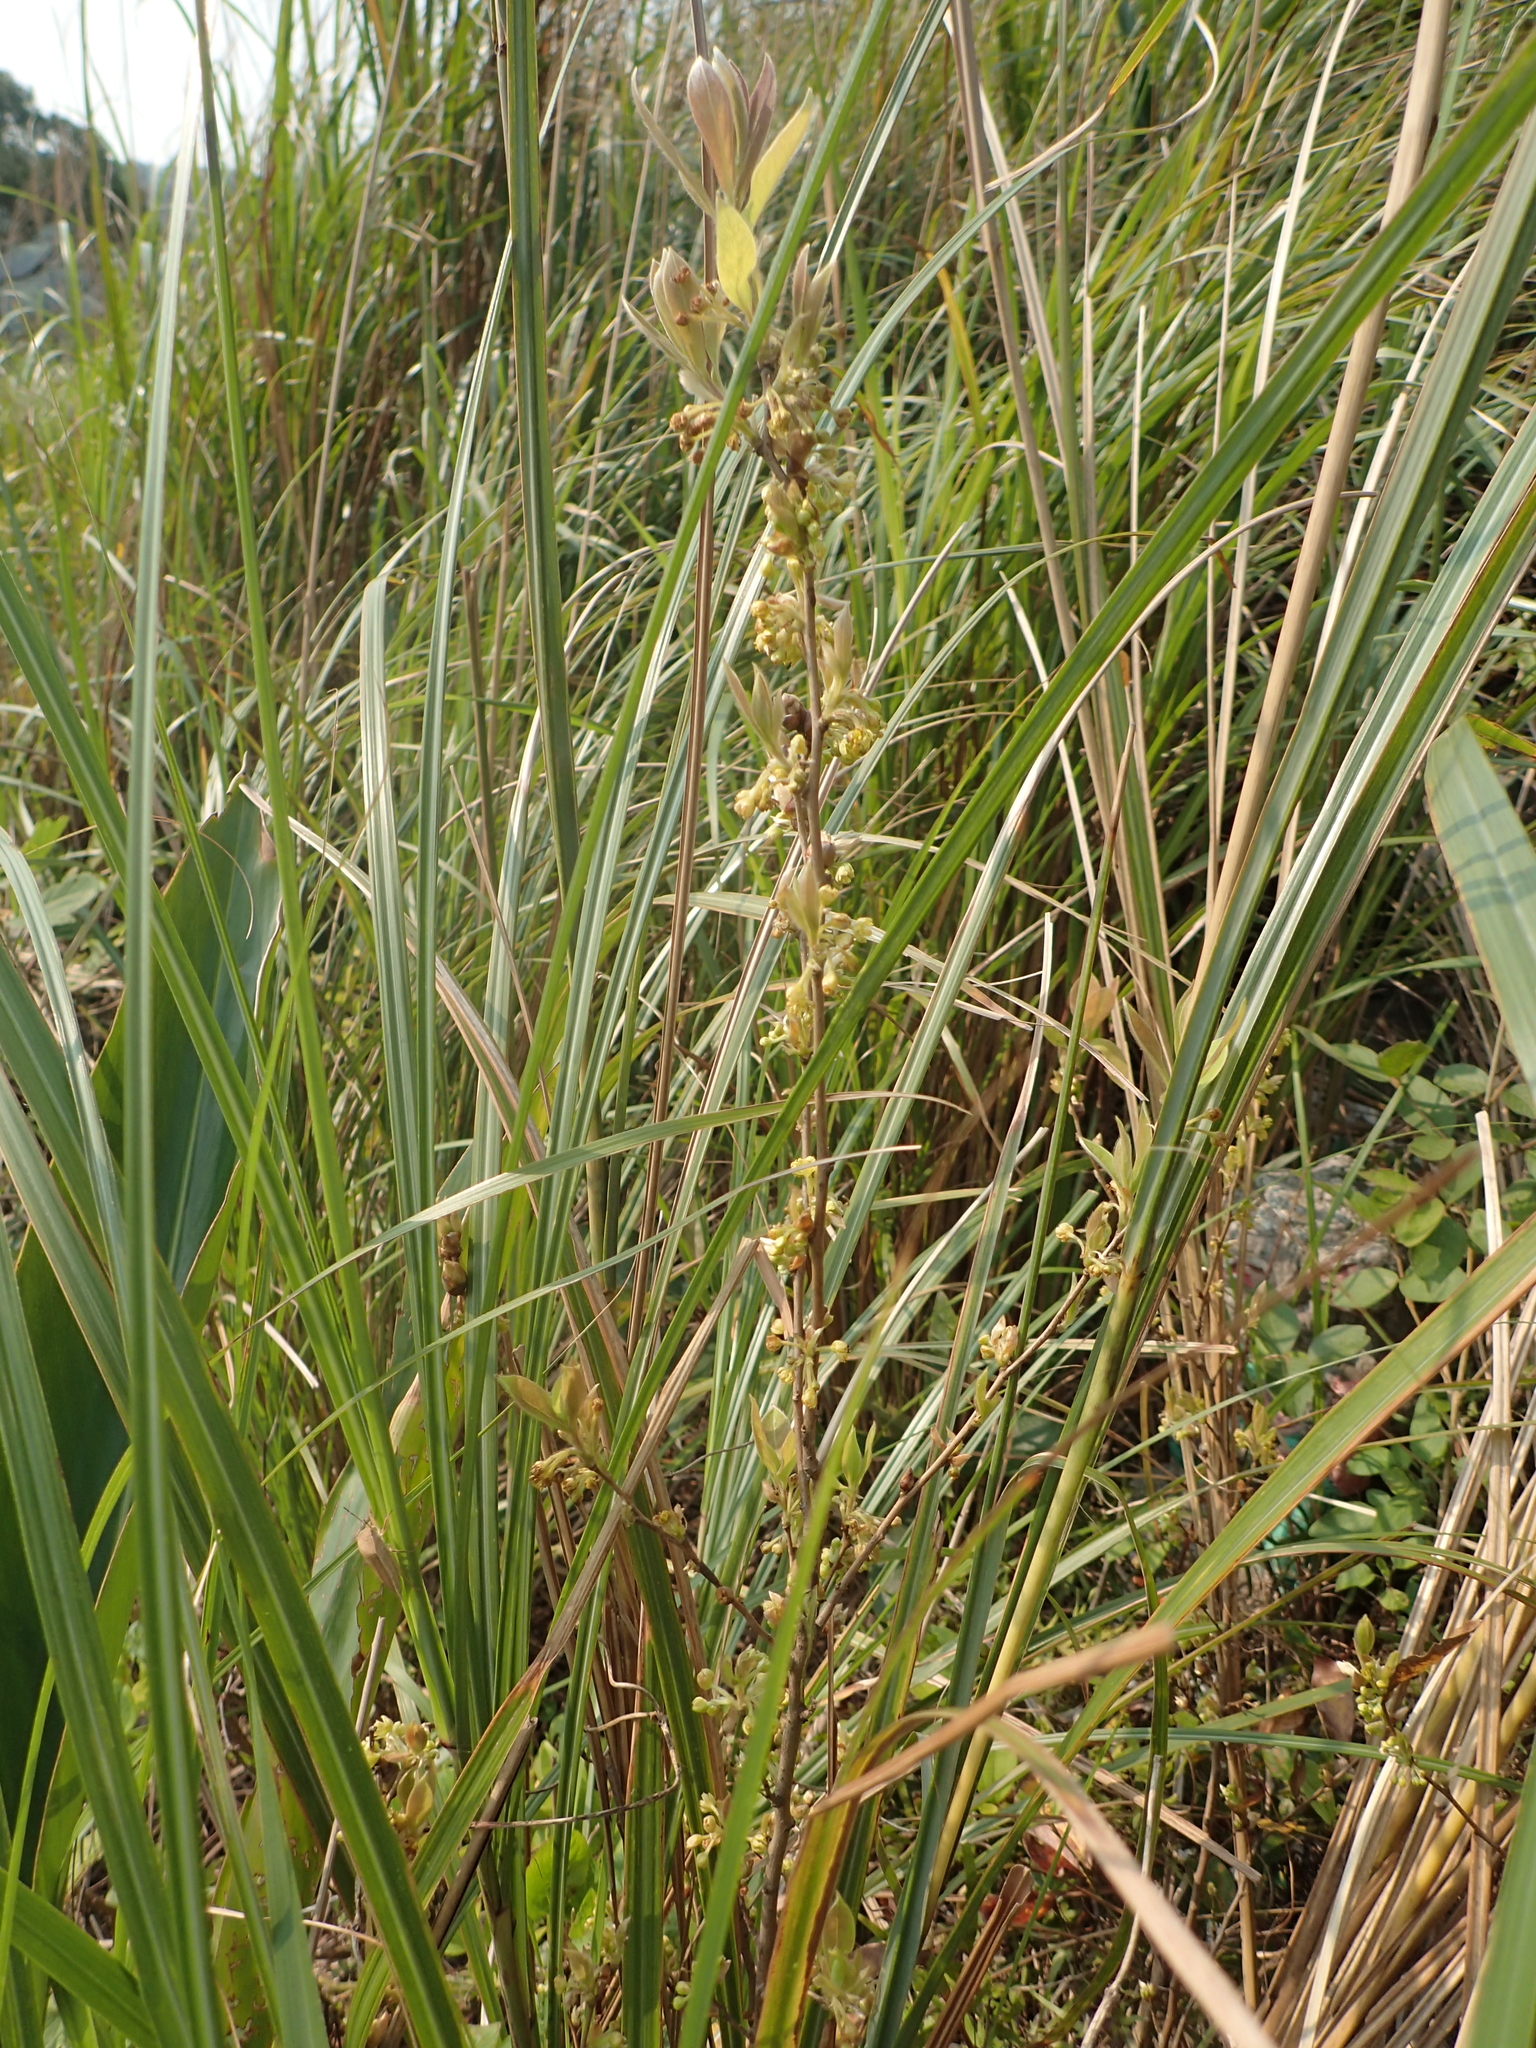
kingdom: Plantae
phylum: Tracheophyta
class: Magnoliopsida
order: Laurales
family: Lauraceae
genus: Lindera
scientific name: Lindera glauca
